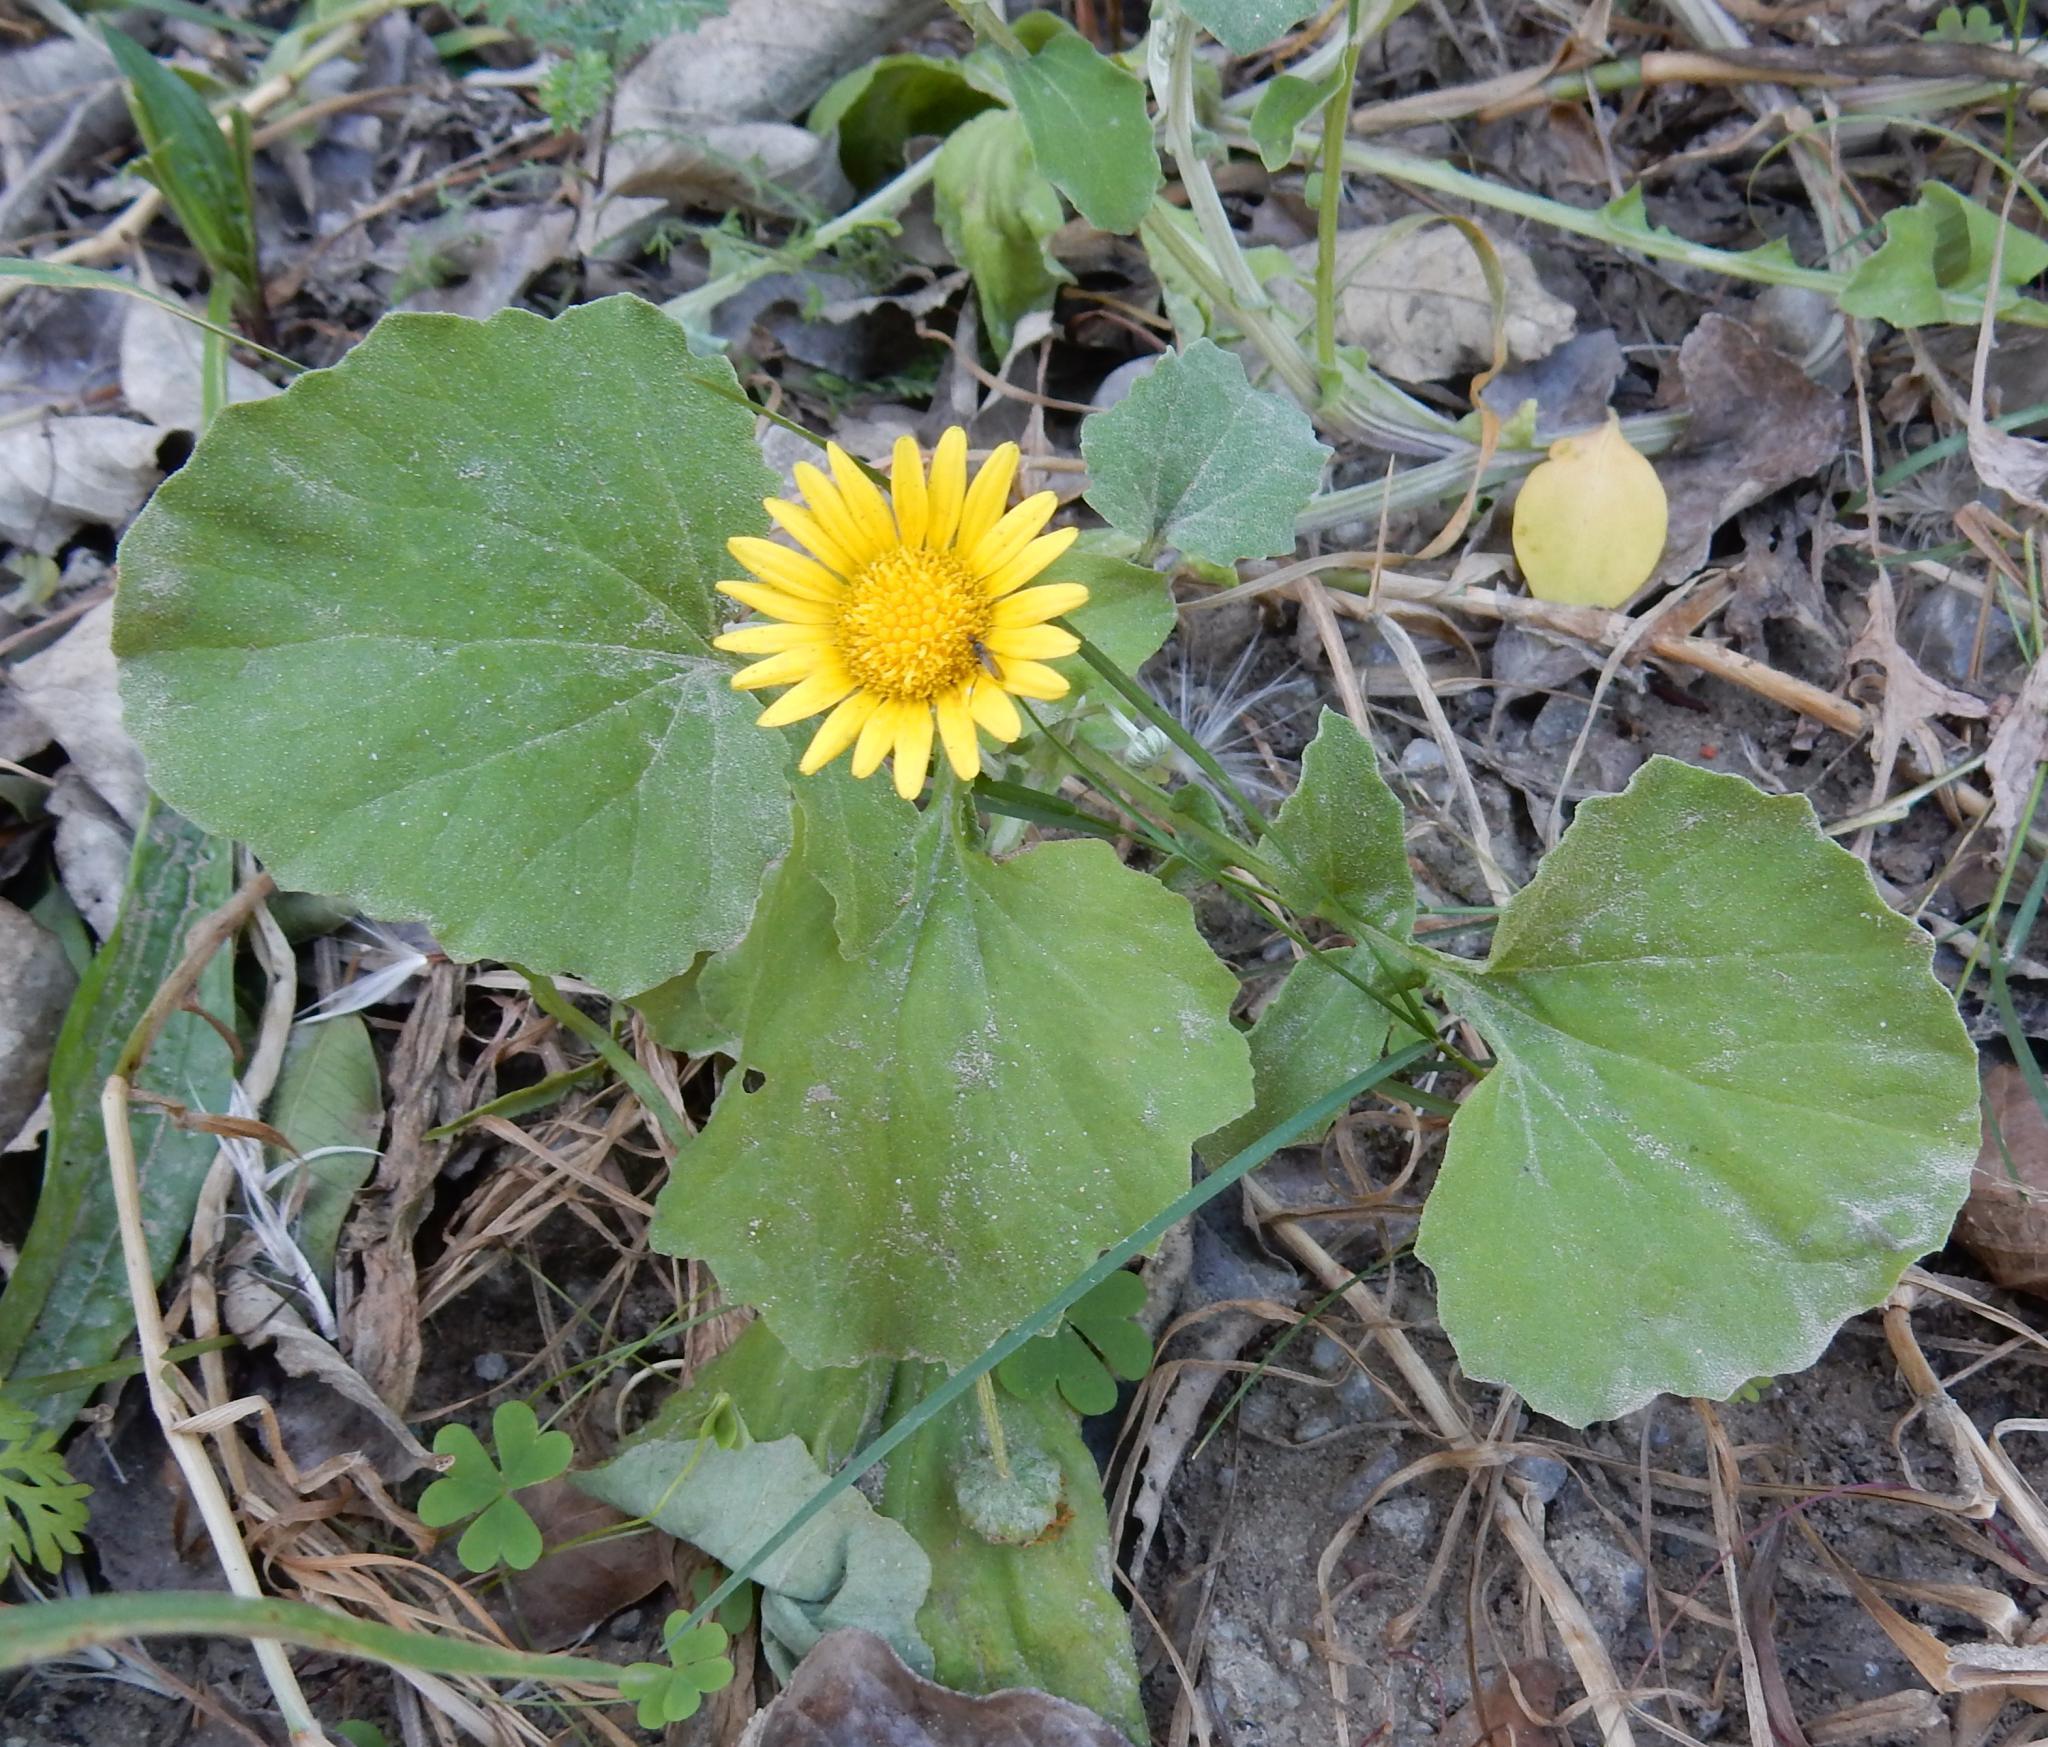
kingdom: Plantae
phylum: Tracheophyta
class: Magnoliopsida
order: Asterales
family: Asteraceae
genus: Arctotheca
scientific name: Arctotheca populifolia
